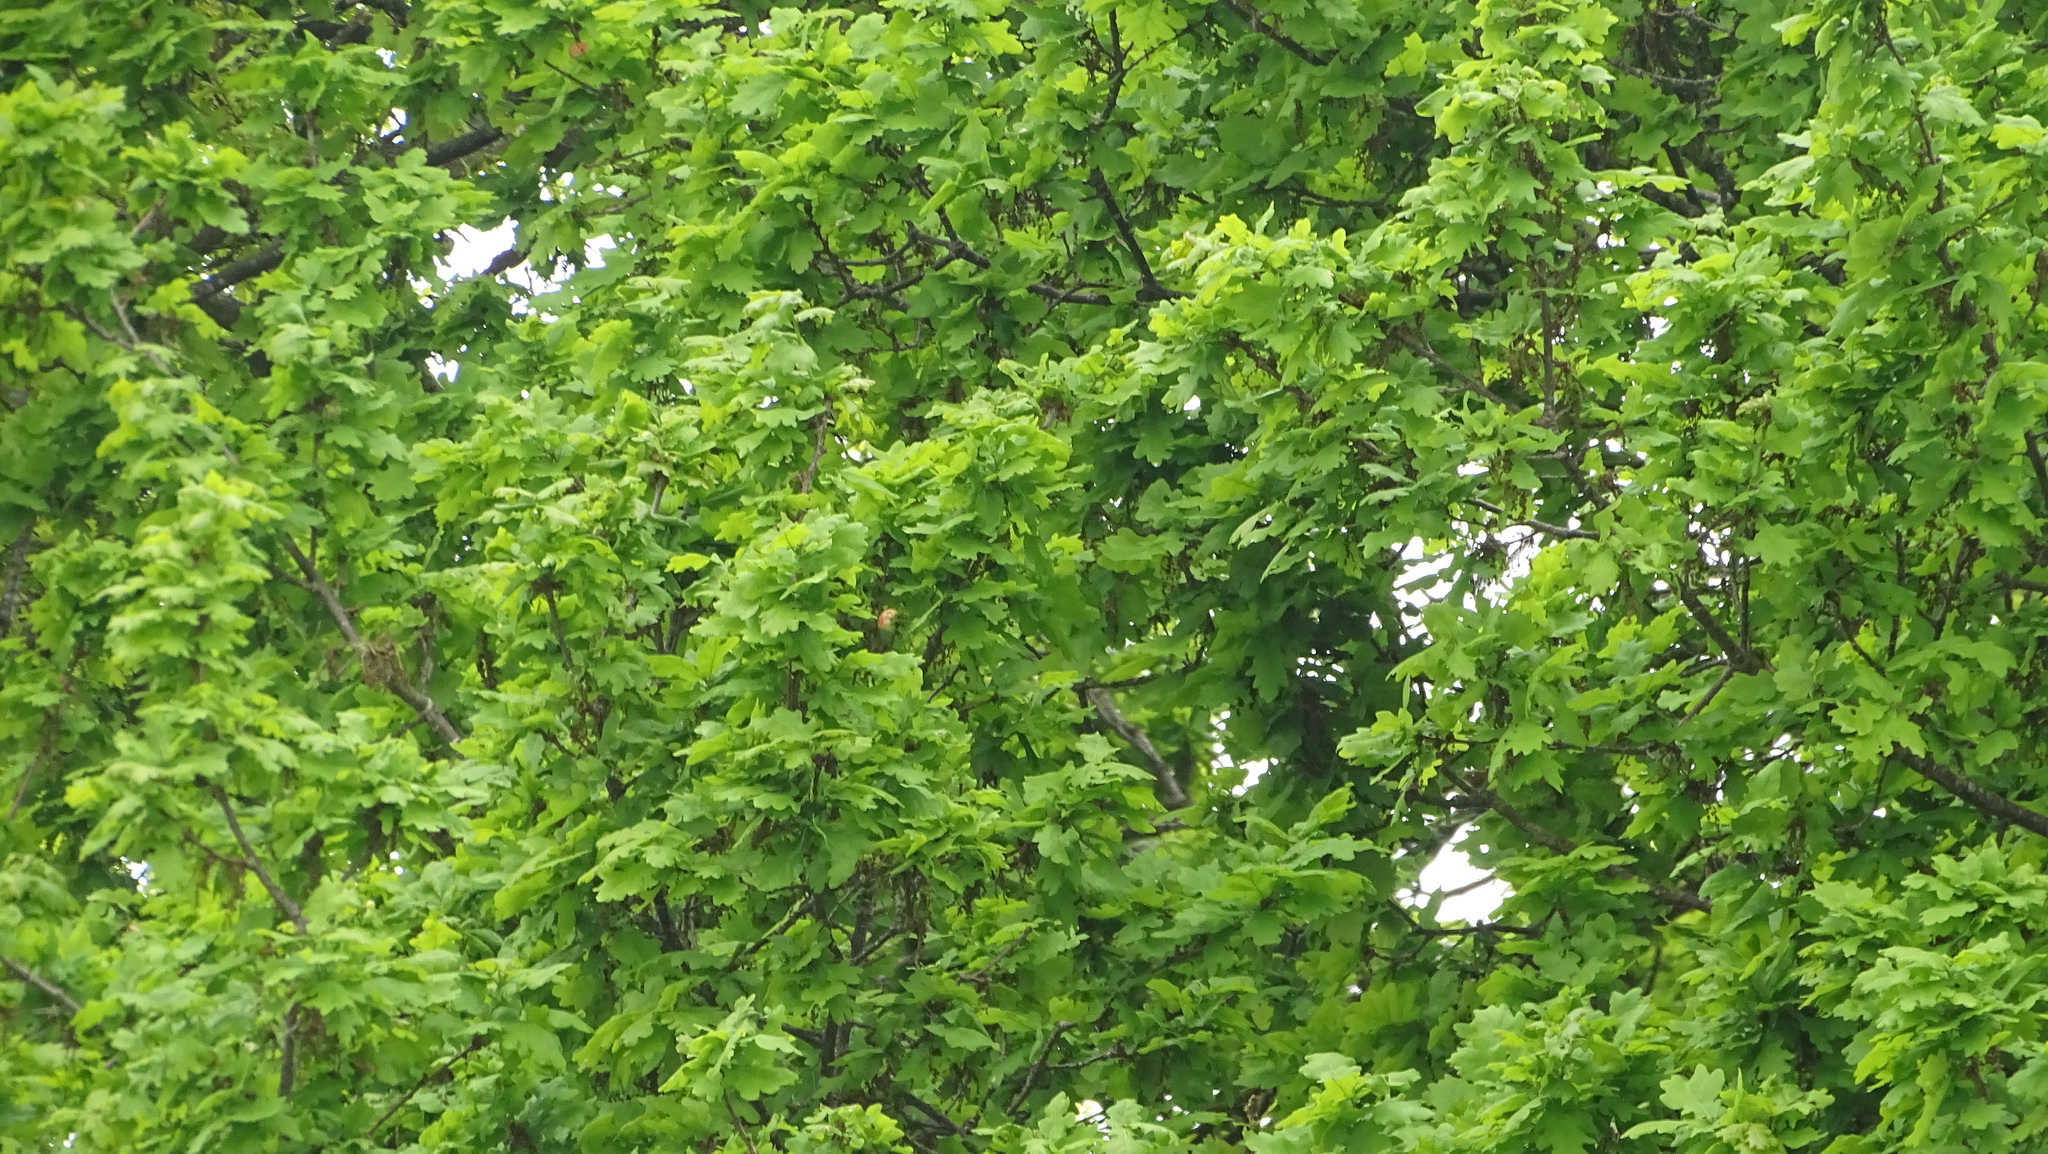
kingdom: Plantae
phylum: Tracheophyta
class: Magnoliopsida
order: Fagales
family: Fagaceae
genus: Quercus
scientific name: Quercus robur
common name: Pedunculate oak
